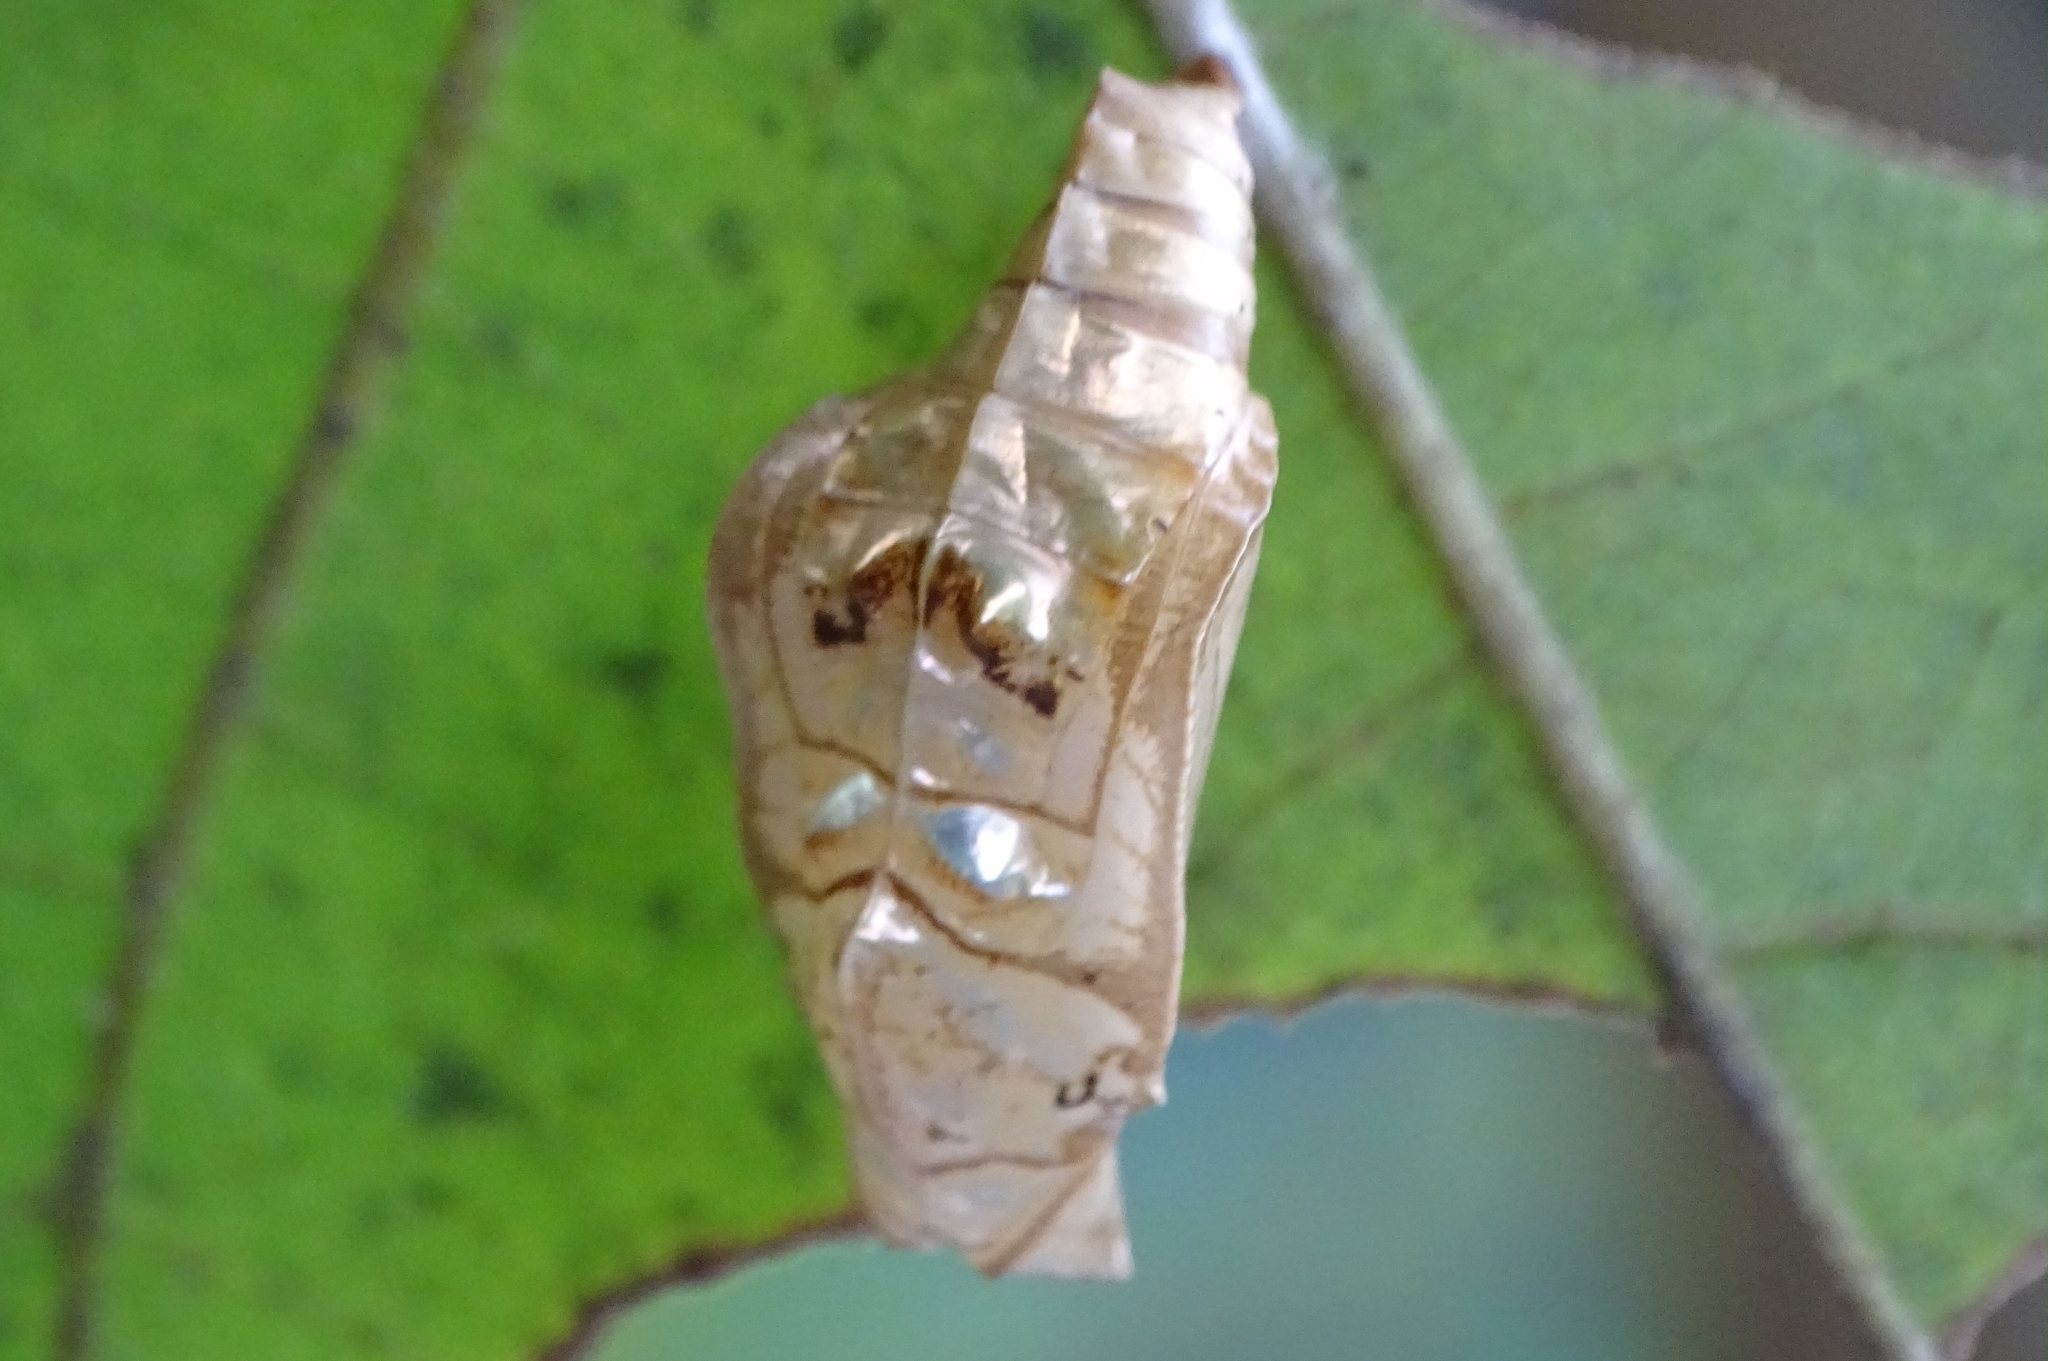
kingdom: Animalia
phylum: Arthropoda
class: Insecta
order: Lepidoptera
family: Nymphalidae
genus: Neptis
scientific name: Neptis jumbah
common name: Chestnut-streaked sailer
